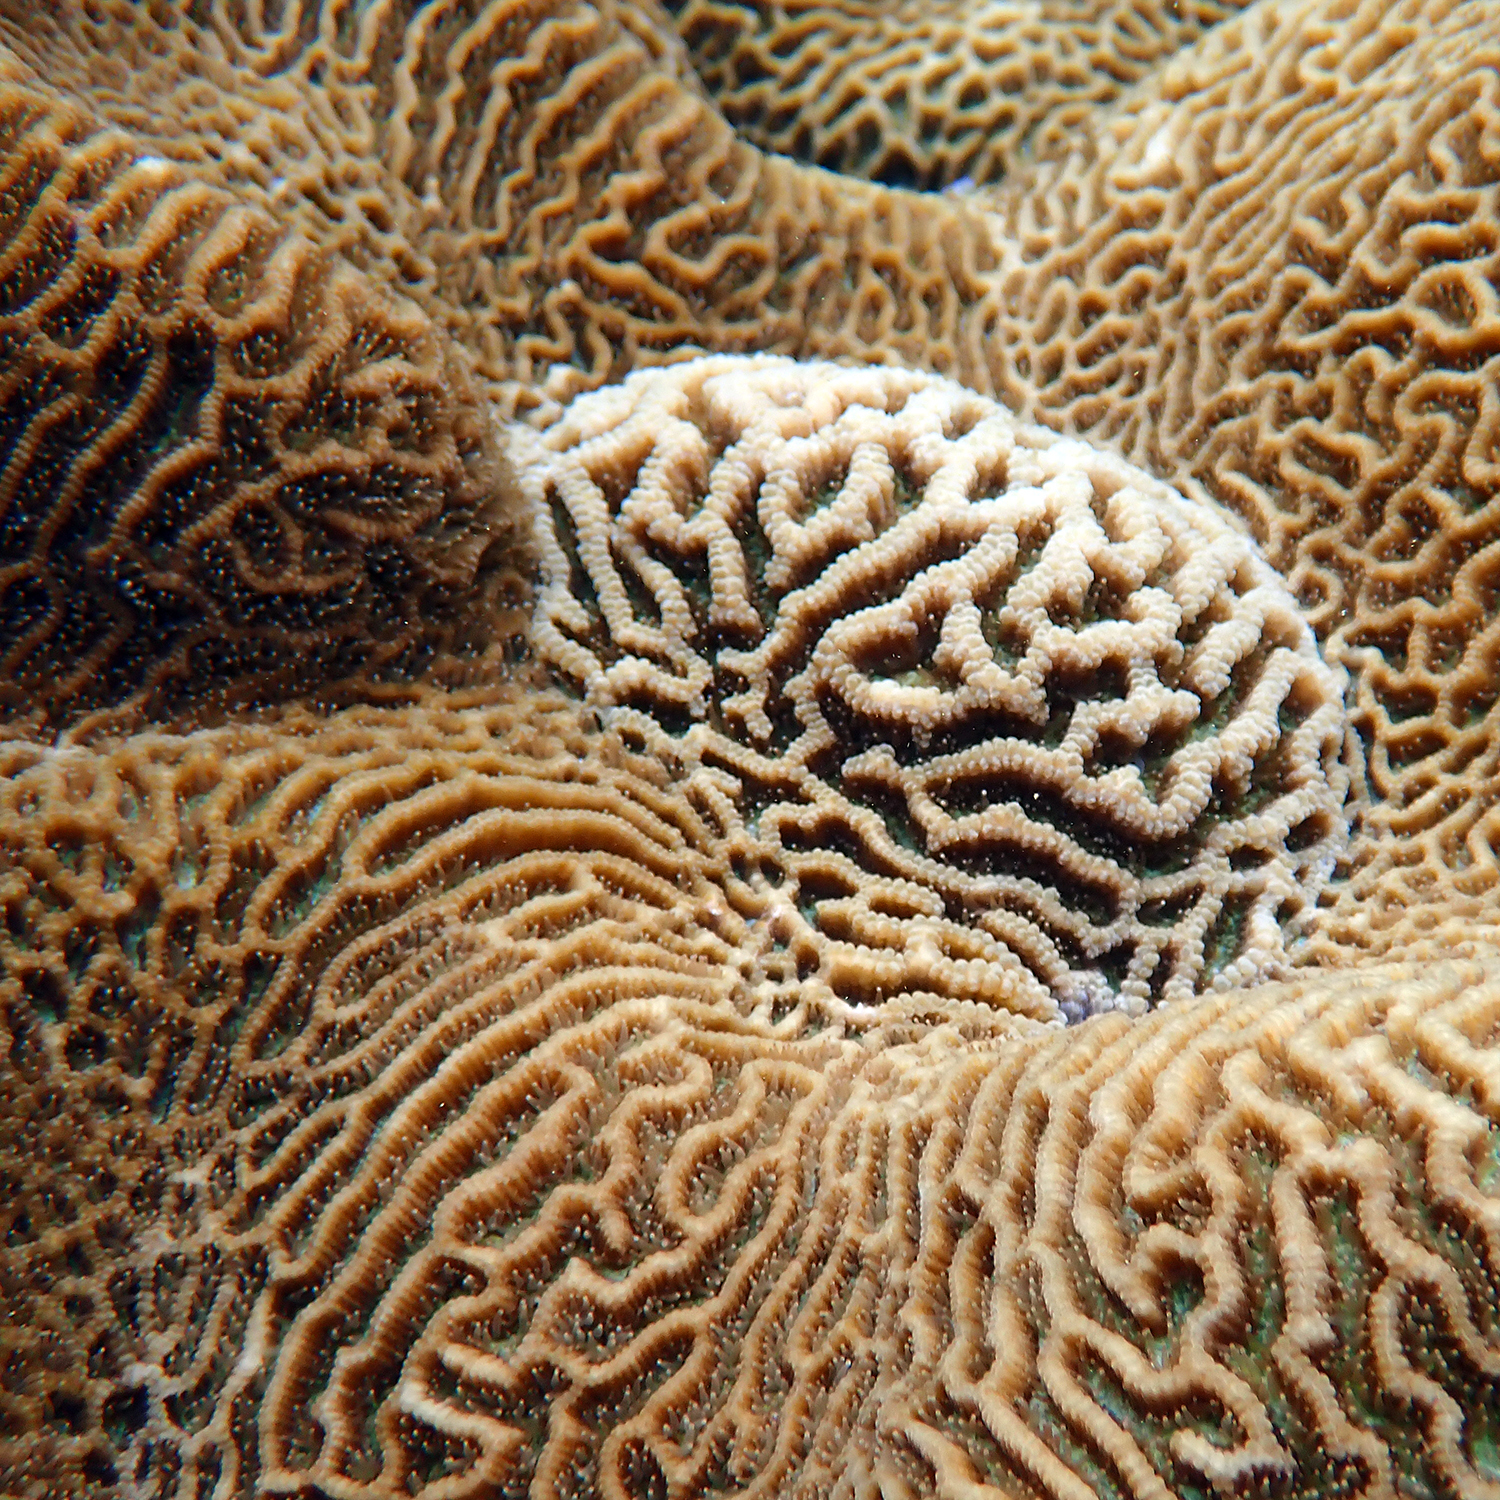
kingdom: Animalia
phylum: Cnidaria
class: Anthozoa
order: Scleractinia
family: Merulinidae
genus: Paragoniastrea
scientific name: Paragoniastrea australensis
